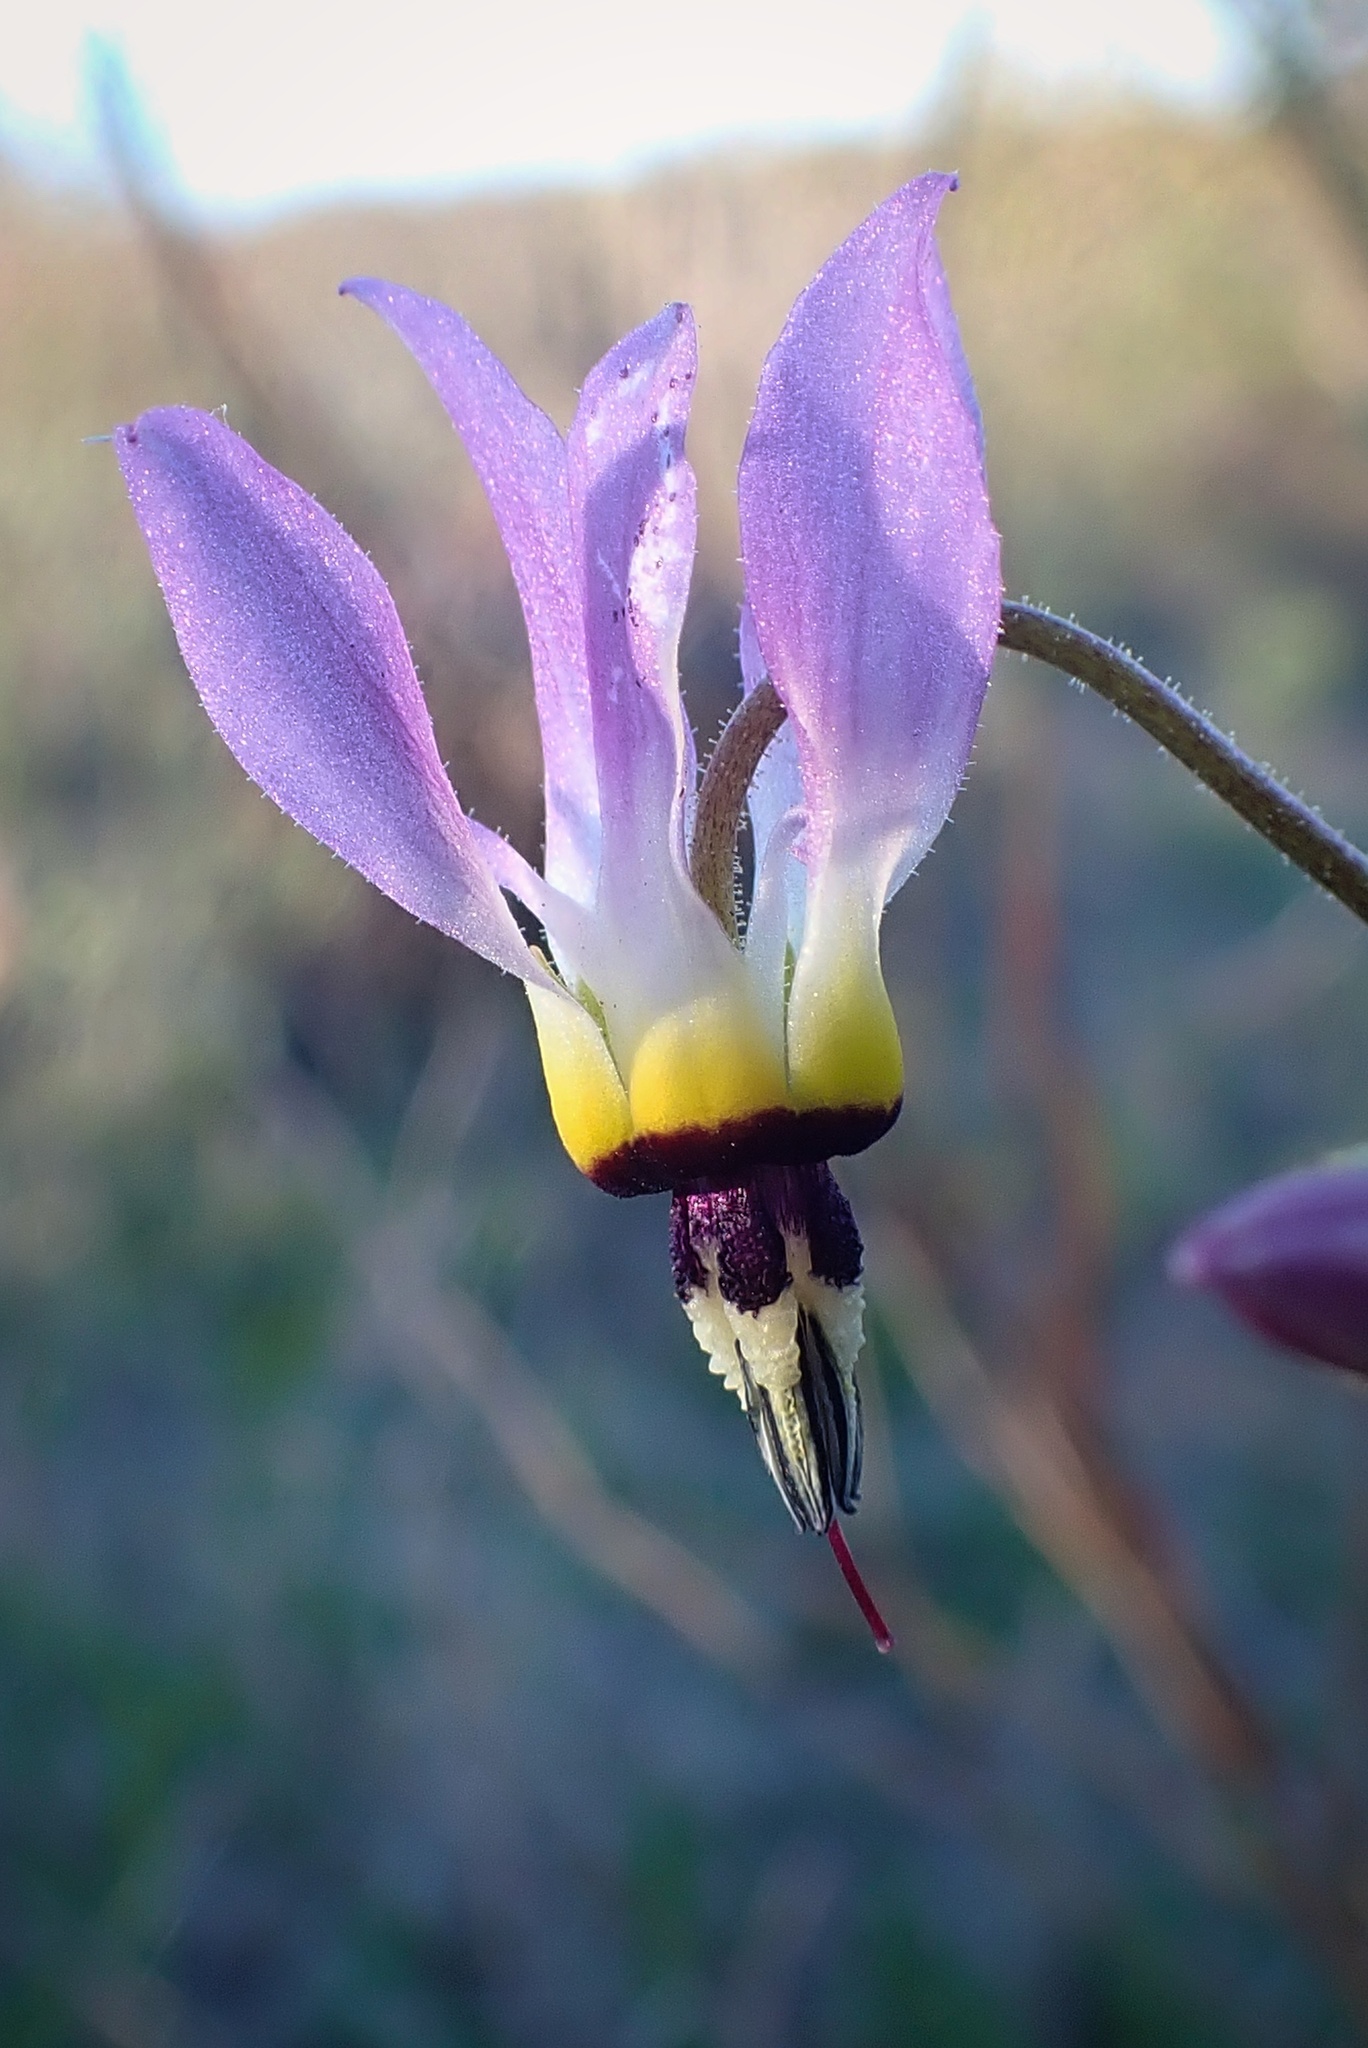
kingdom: Plantae
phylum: Tracheophyta
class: Magnoliopsida
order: Ericales
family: Primulaceae
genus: Dodecatheon
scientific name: Dodecatheon clevelandii
